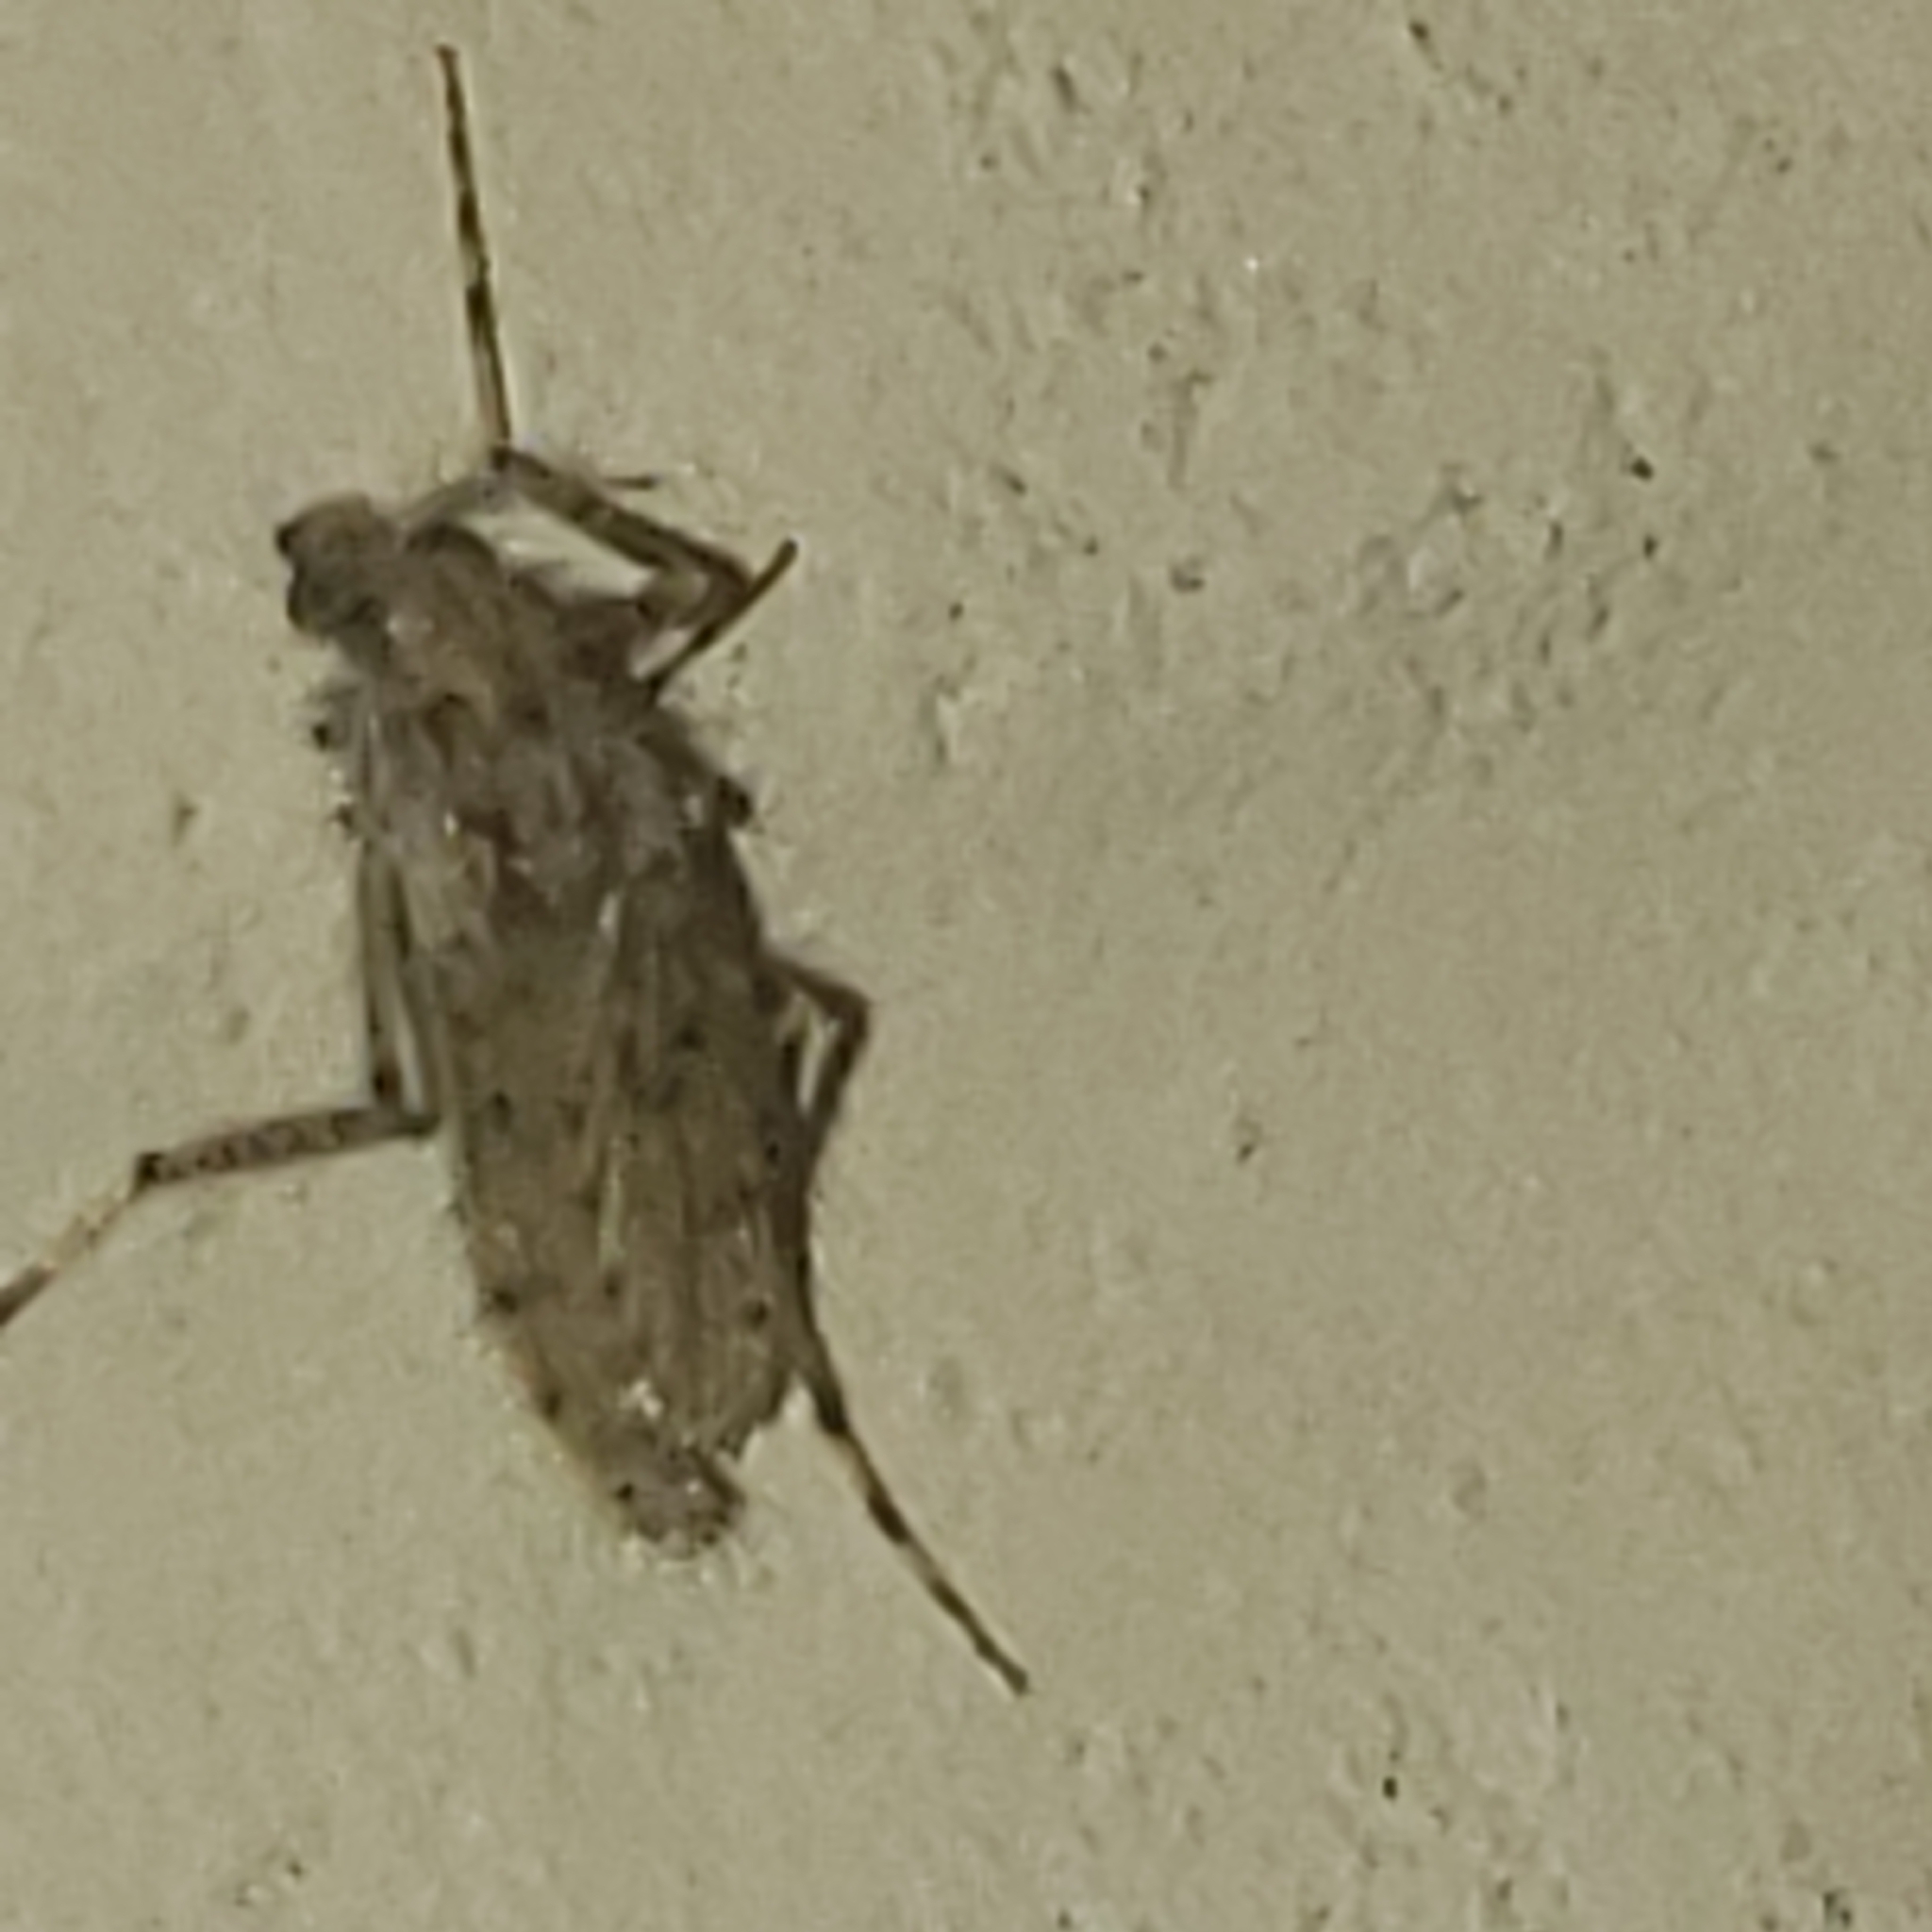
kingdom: Animalia
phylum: Arthropoda
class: Insecta
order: Diptera
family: Chaoboridae
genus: Chaoborus
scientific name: Chaoborus punctipennis
